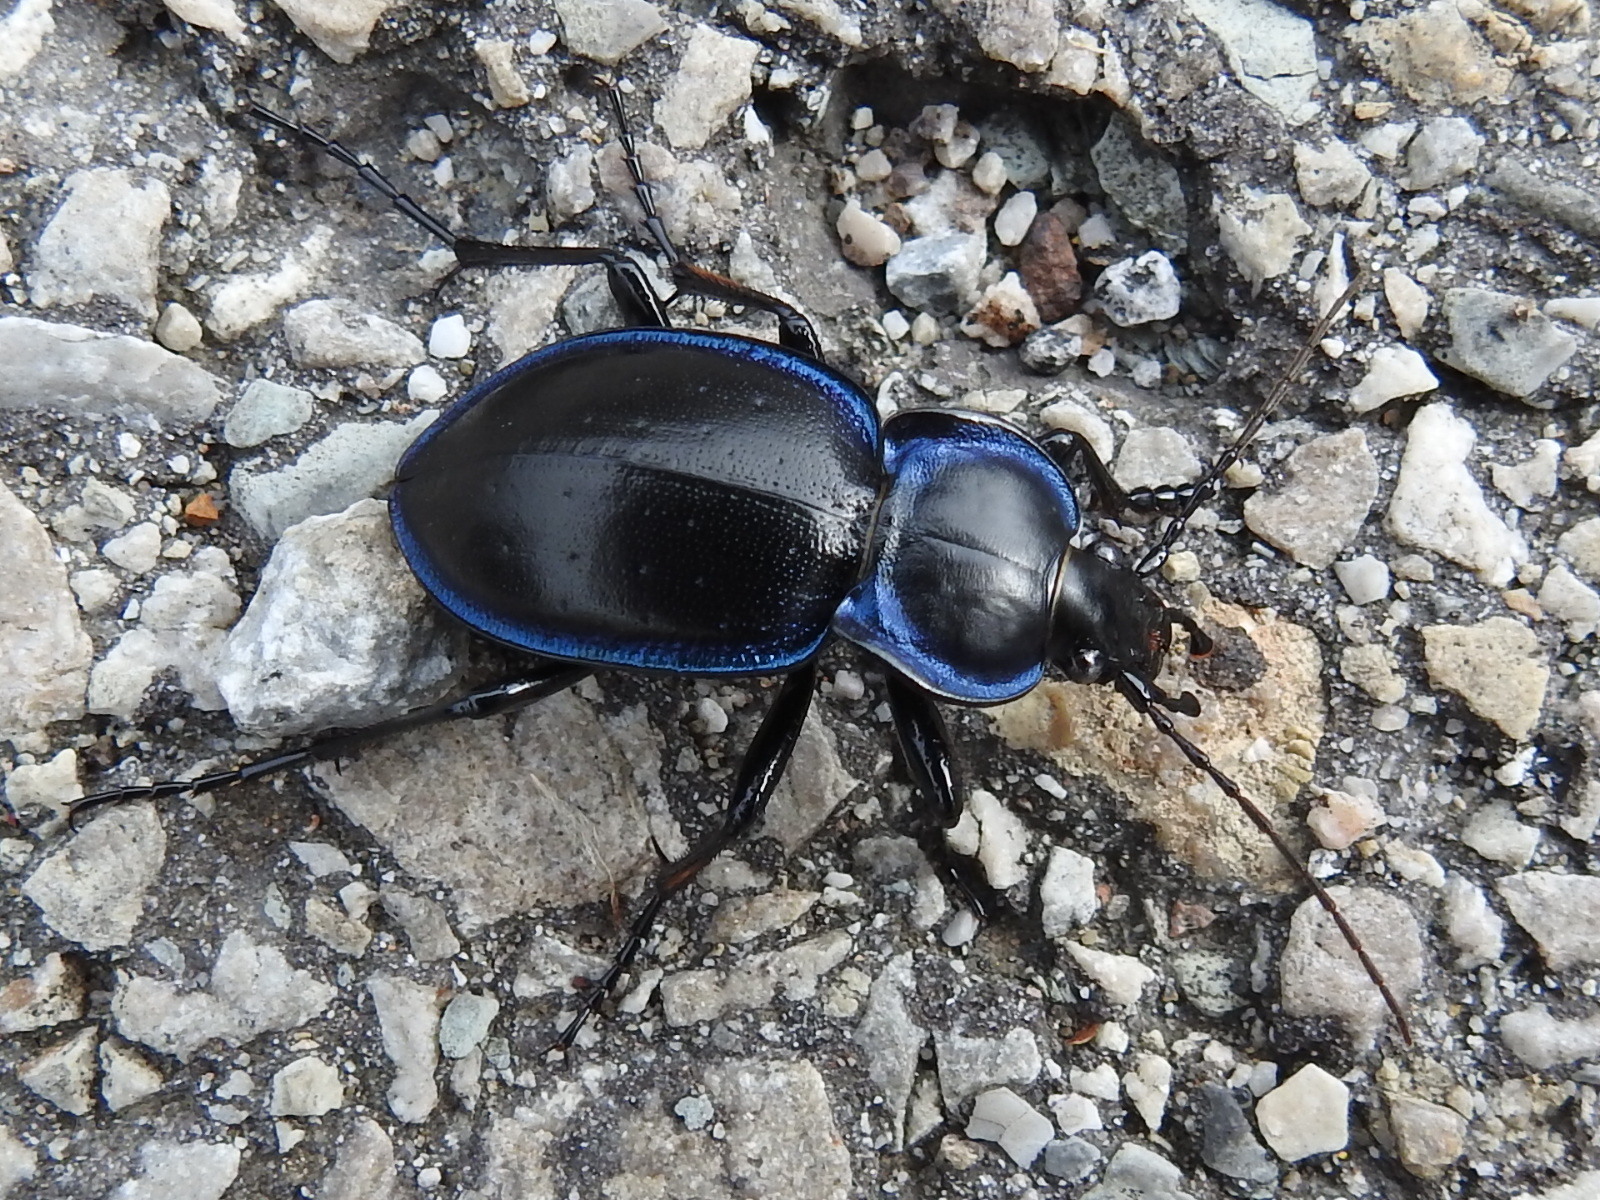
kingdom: Animalia
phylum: Arthropoda
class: Insecta
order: Coleoptera
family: Carabidae
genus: Carabus
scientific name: Carabus finitimus
